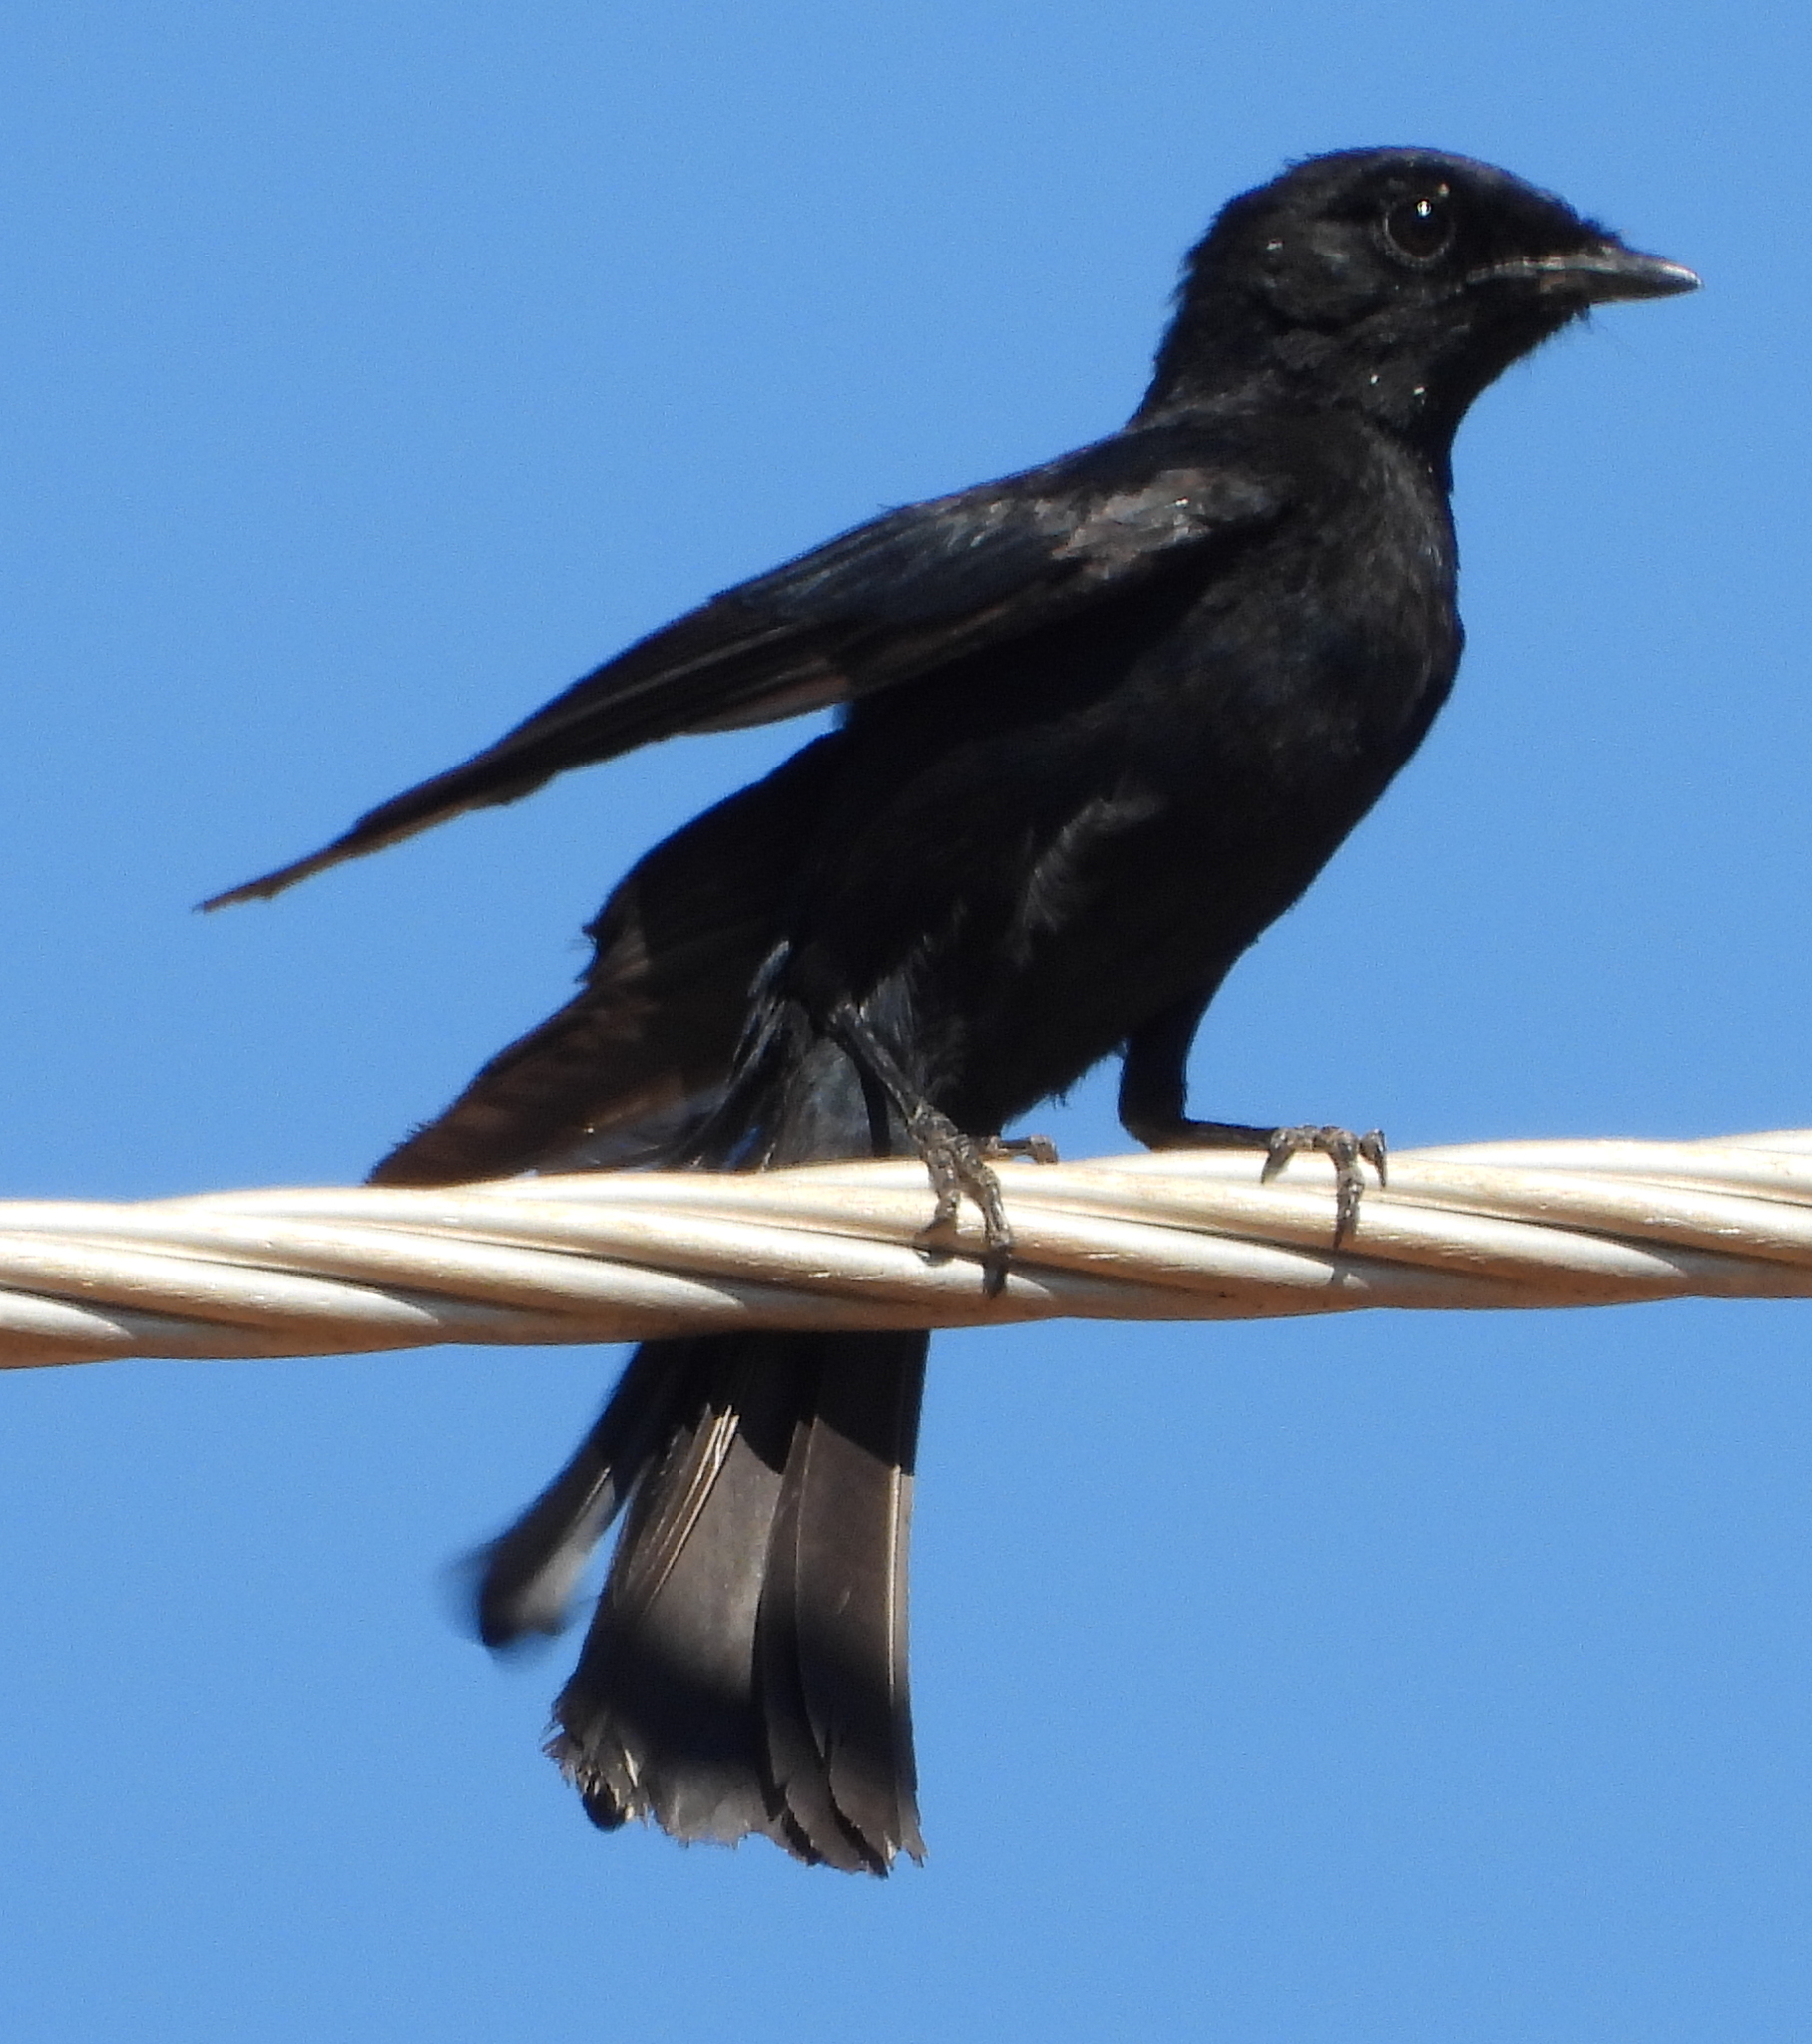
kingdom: Animalia
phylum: Chordata
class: Aves
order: Passeriformes
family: Muscicapidae
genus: Melaenornis
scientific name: Melaenornis pammelaina
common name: Southern black flycatcher
